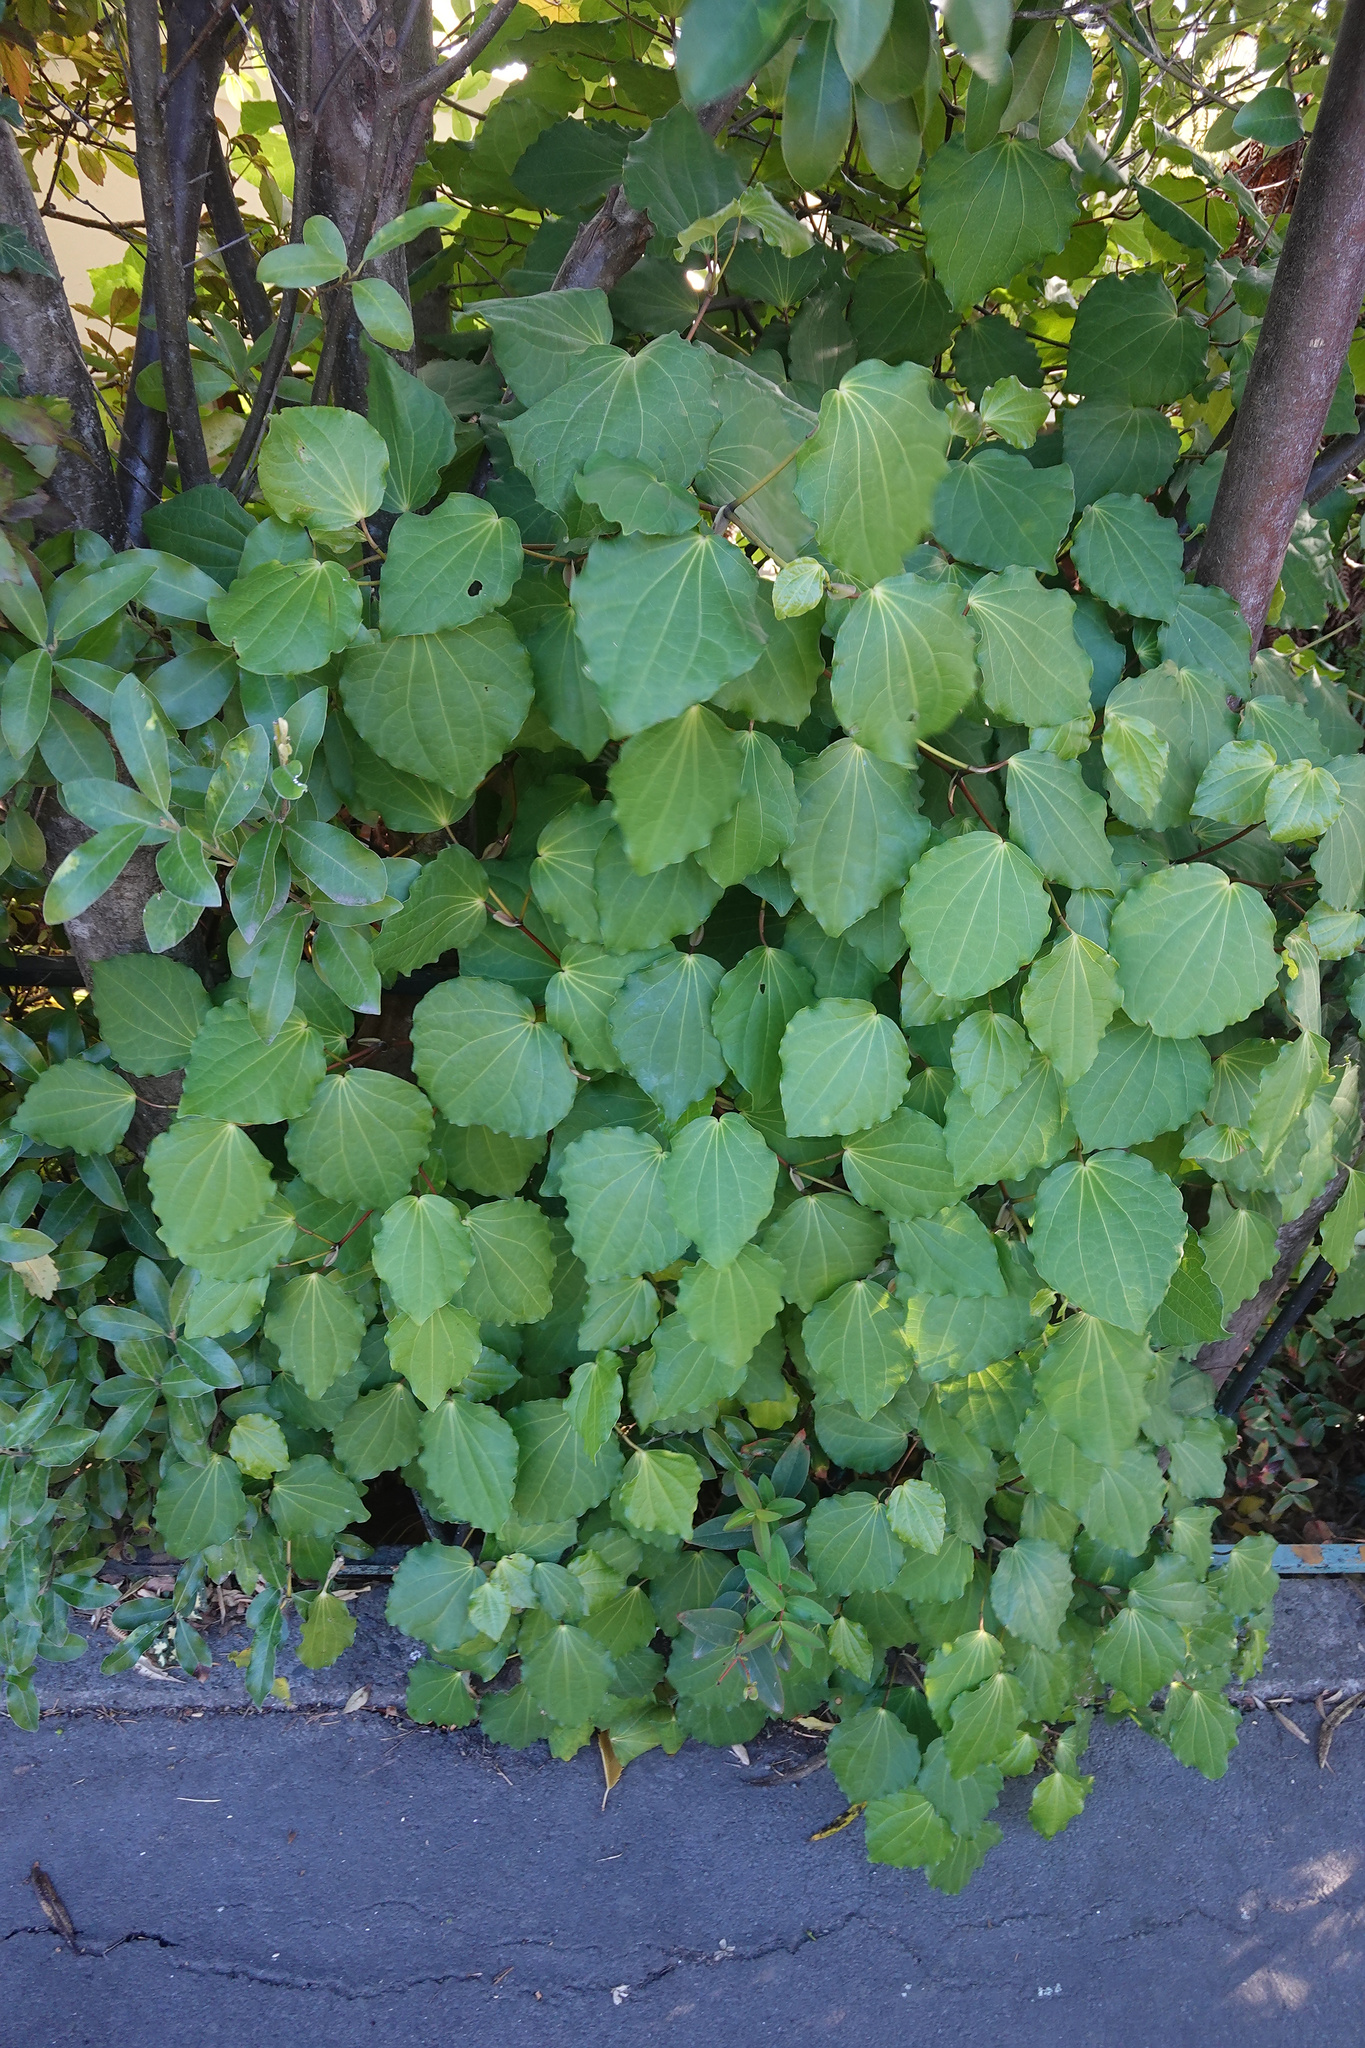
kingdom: Plantae
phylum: Tracheophyta
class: Magnoliopsida
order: Piperales
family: Piperaceae
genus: Macropiper
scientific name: Macropiper excelsum
